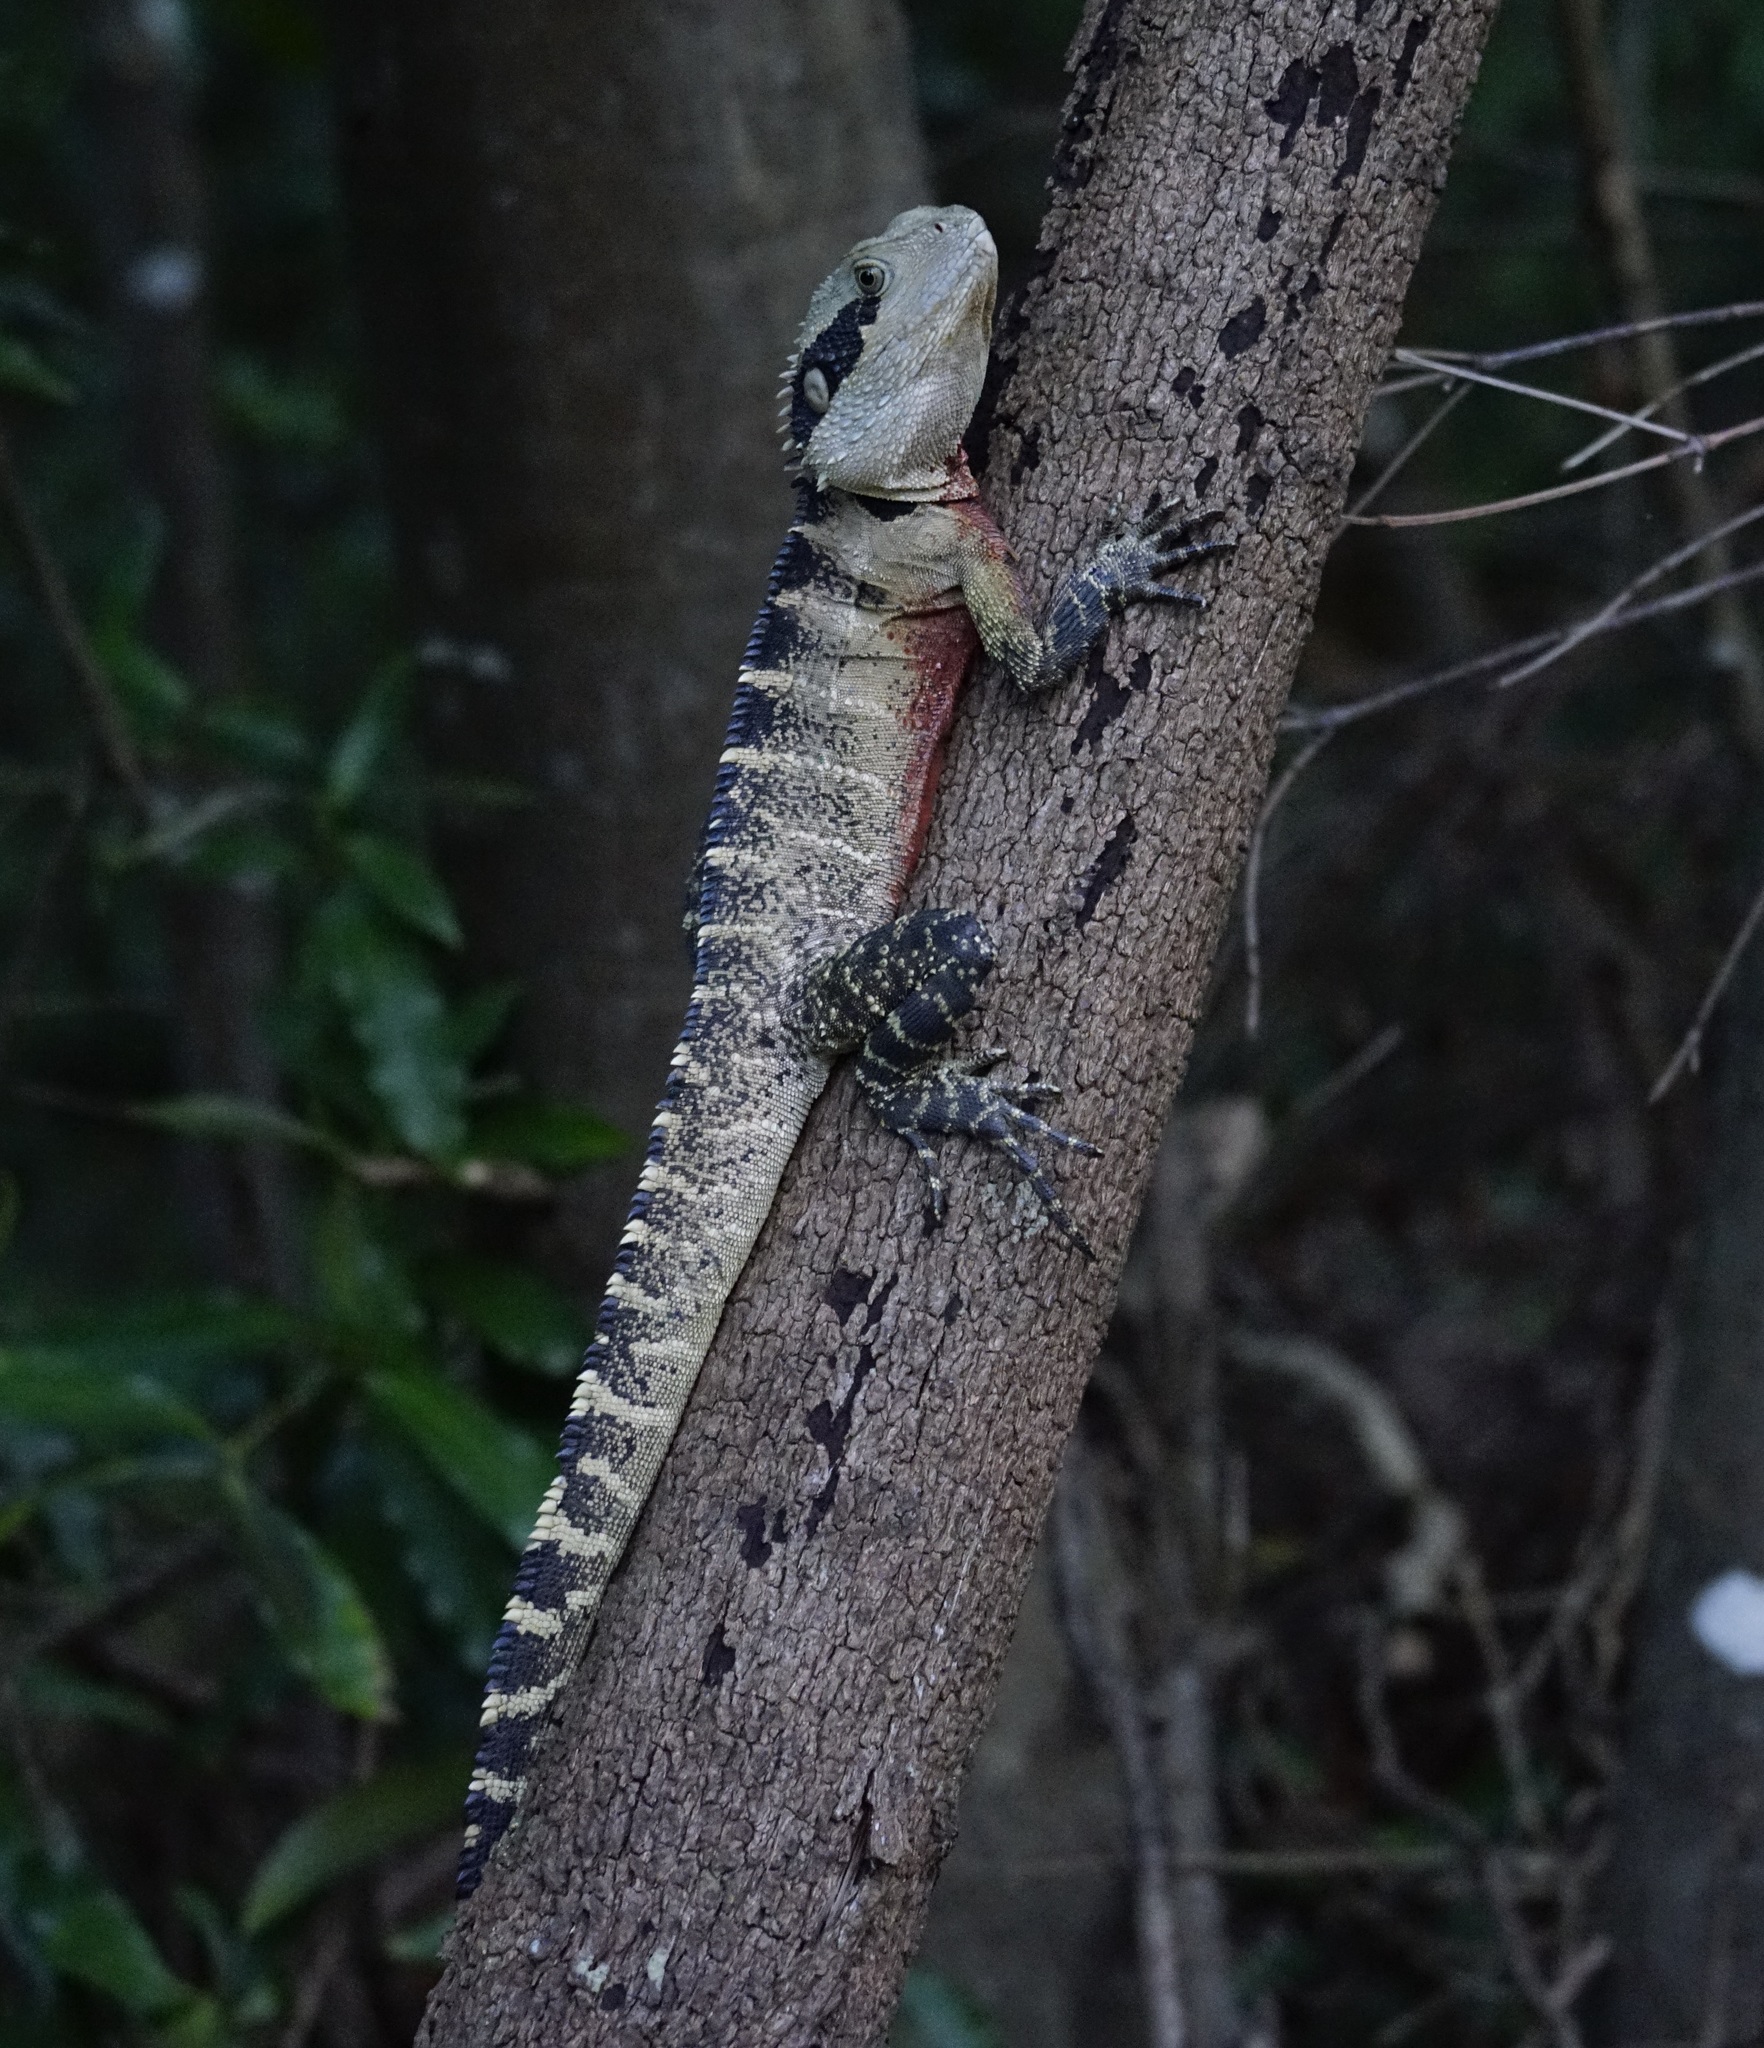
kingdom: Animalia
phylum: Chordata
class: Squamata
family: Agamidae
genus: Intellagama
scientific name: Intellagama lesueurii
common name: Eastern water dragon
